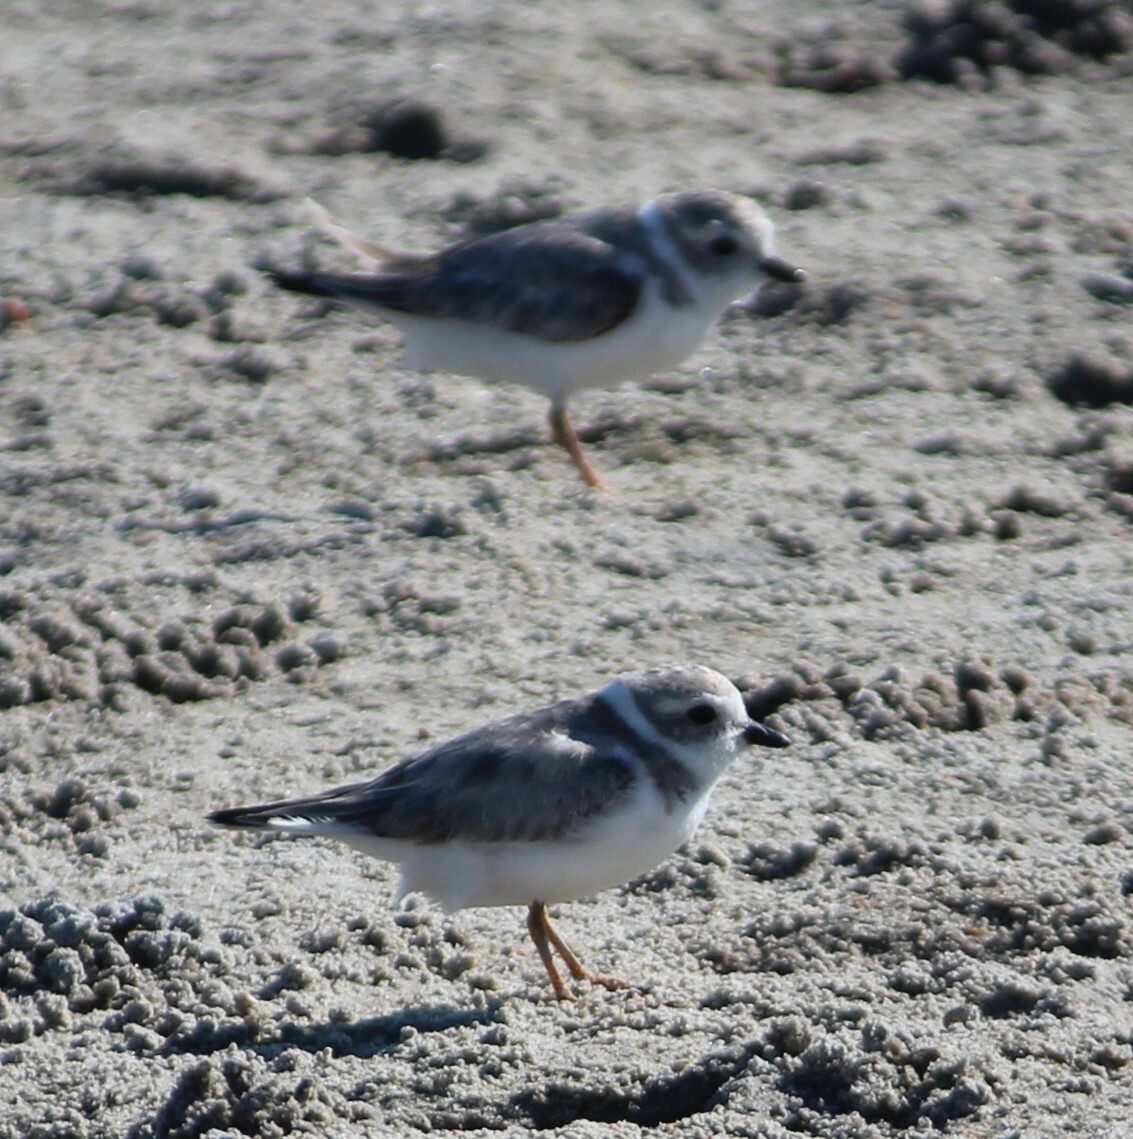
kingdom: Animalia
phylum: Chordata
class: Aves
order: Charadriiformes
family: Charadriidae
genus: Charadrius
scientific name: Charadrius melodus
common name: Piping plover
